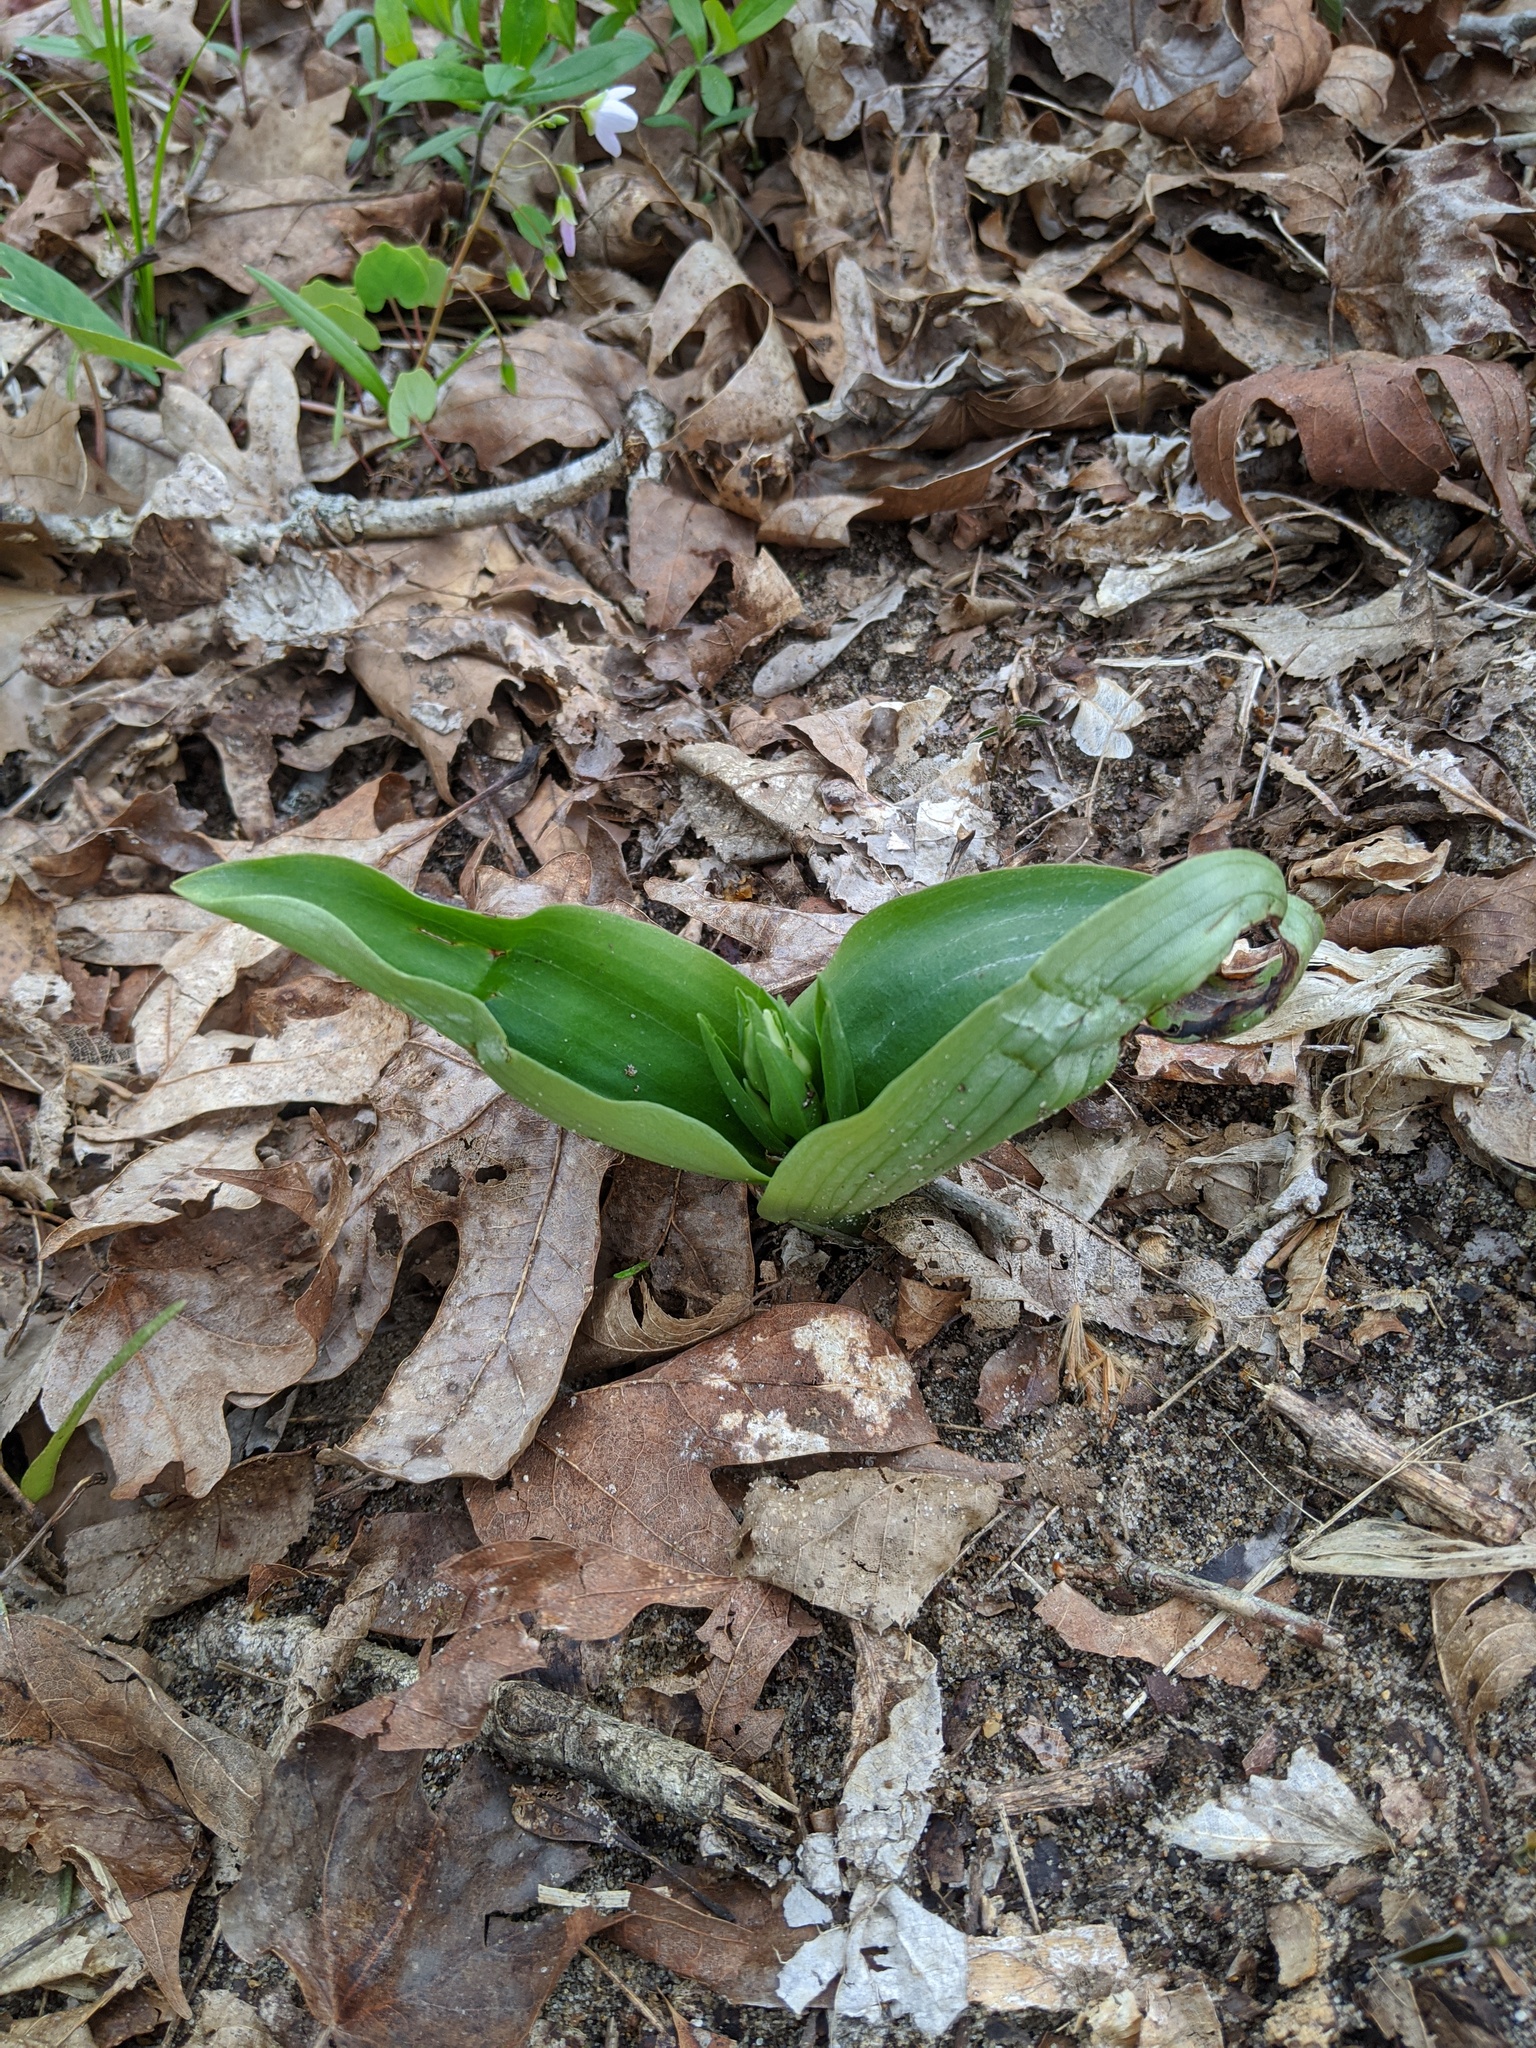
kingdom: Plantae
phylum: Tracheophyta
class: Liliopsida
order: Asparagales
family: Orchidaceae
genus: Galearis
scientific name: Galearis spectabilis
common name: Purple-hooded orchis
